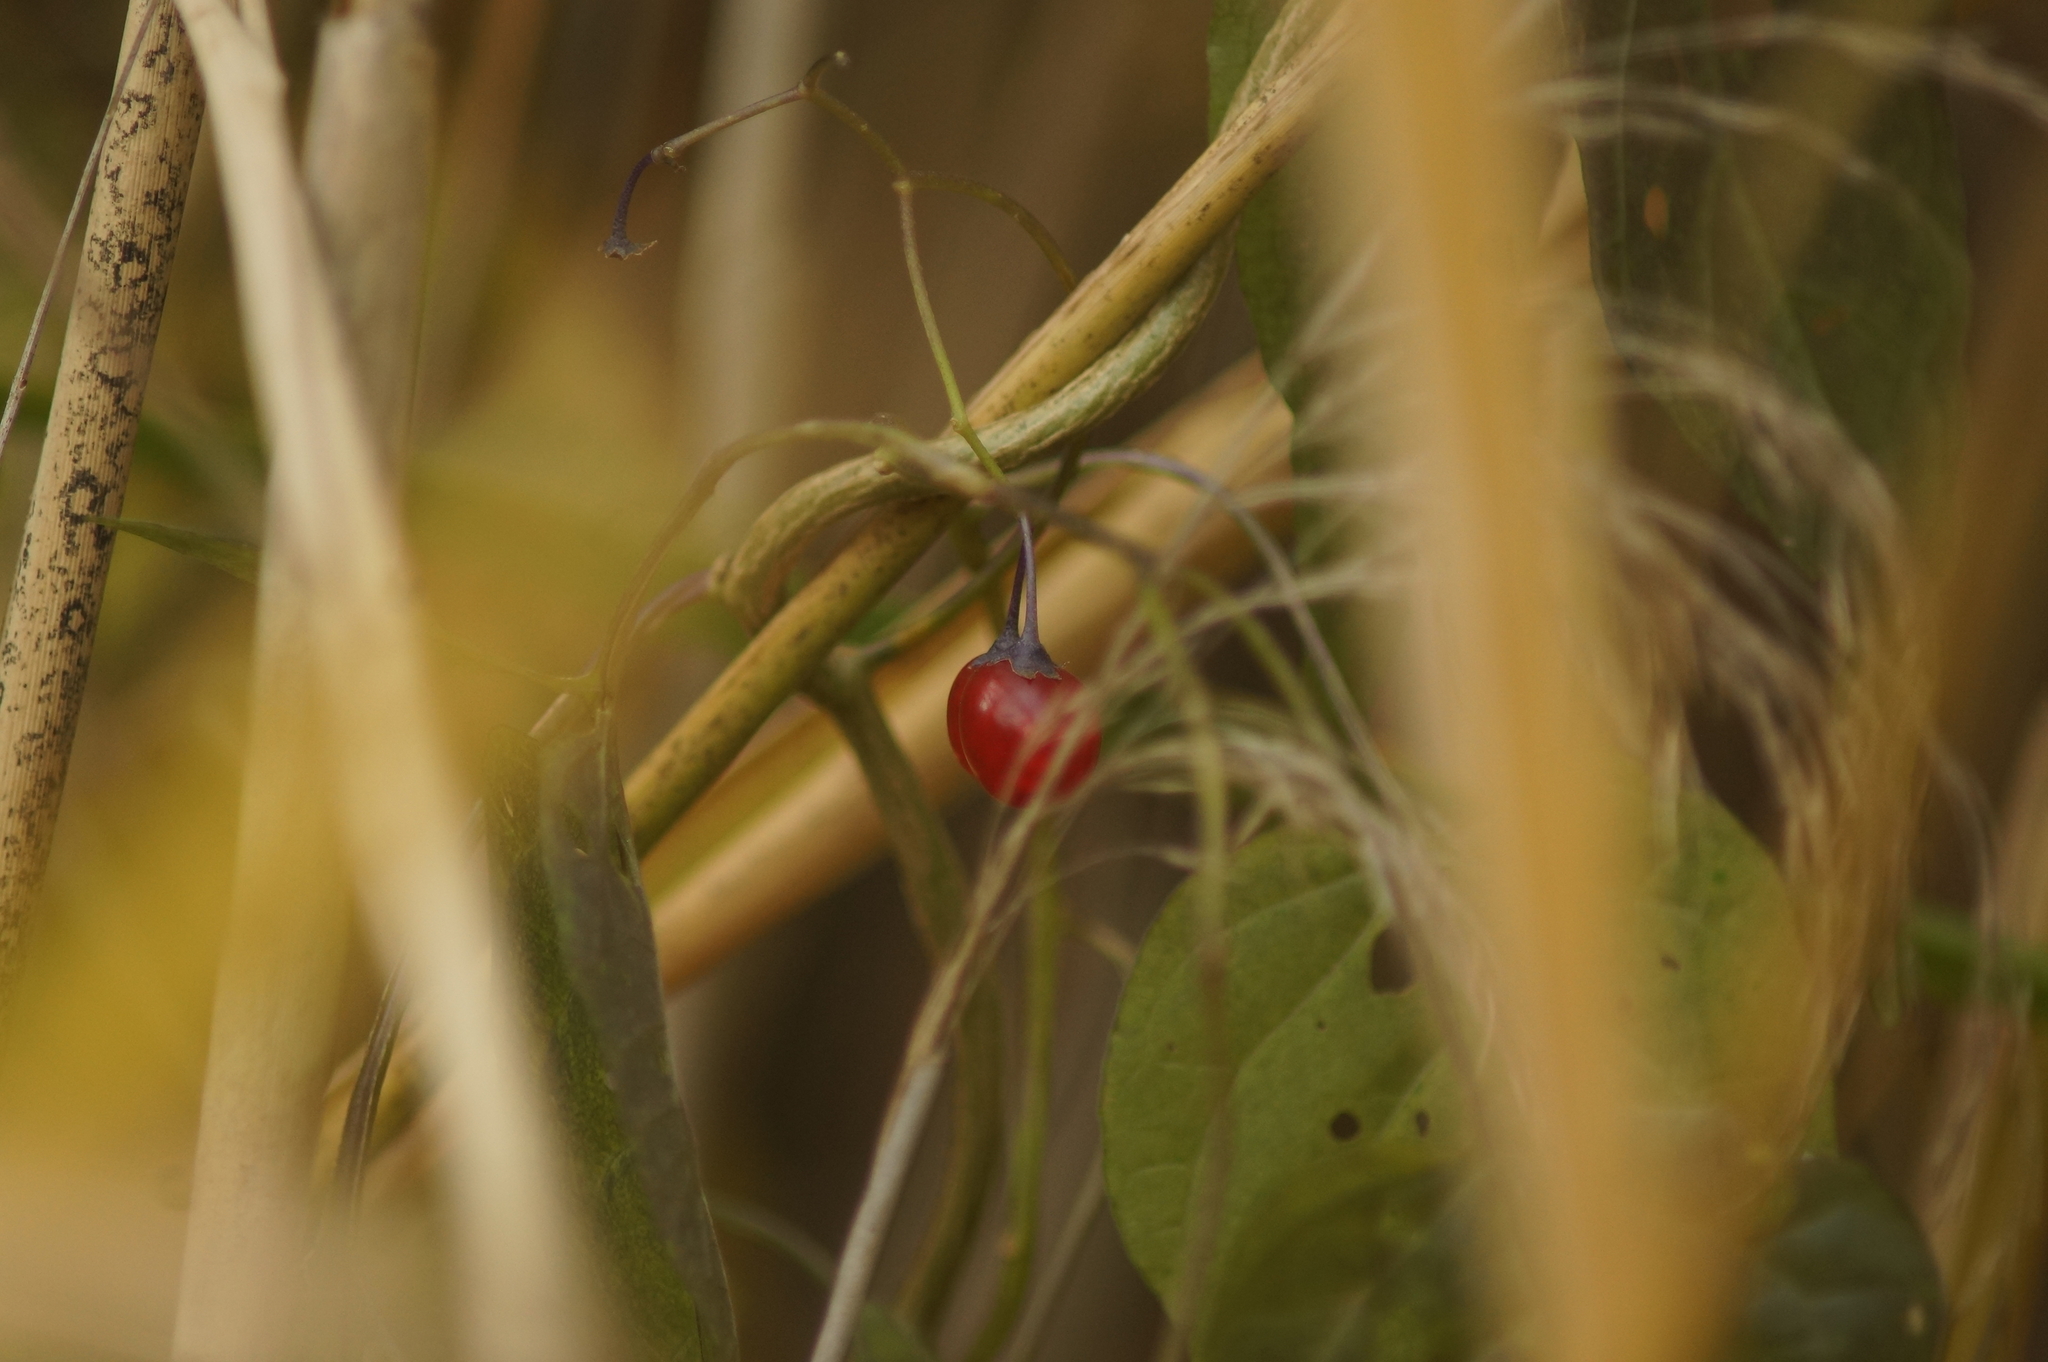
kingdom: Plantae
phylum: Tracheophyta
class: Magnoliopsida
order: Solanales
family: Solanaceae
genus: Solanum
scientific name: Solanum dulcamara
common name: Climbing nightshade
